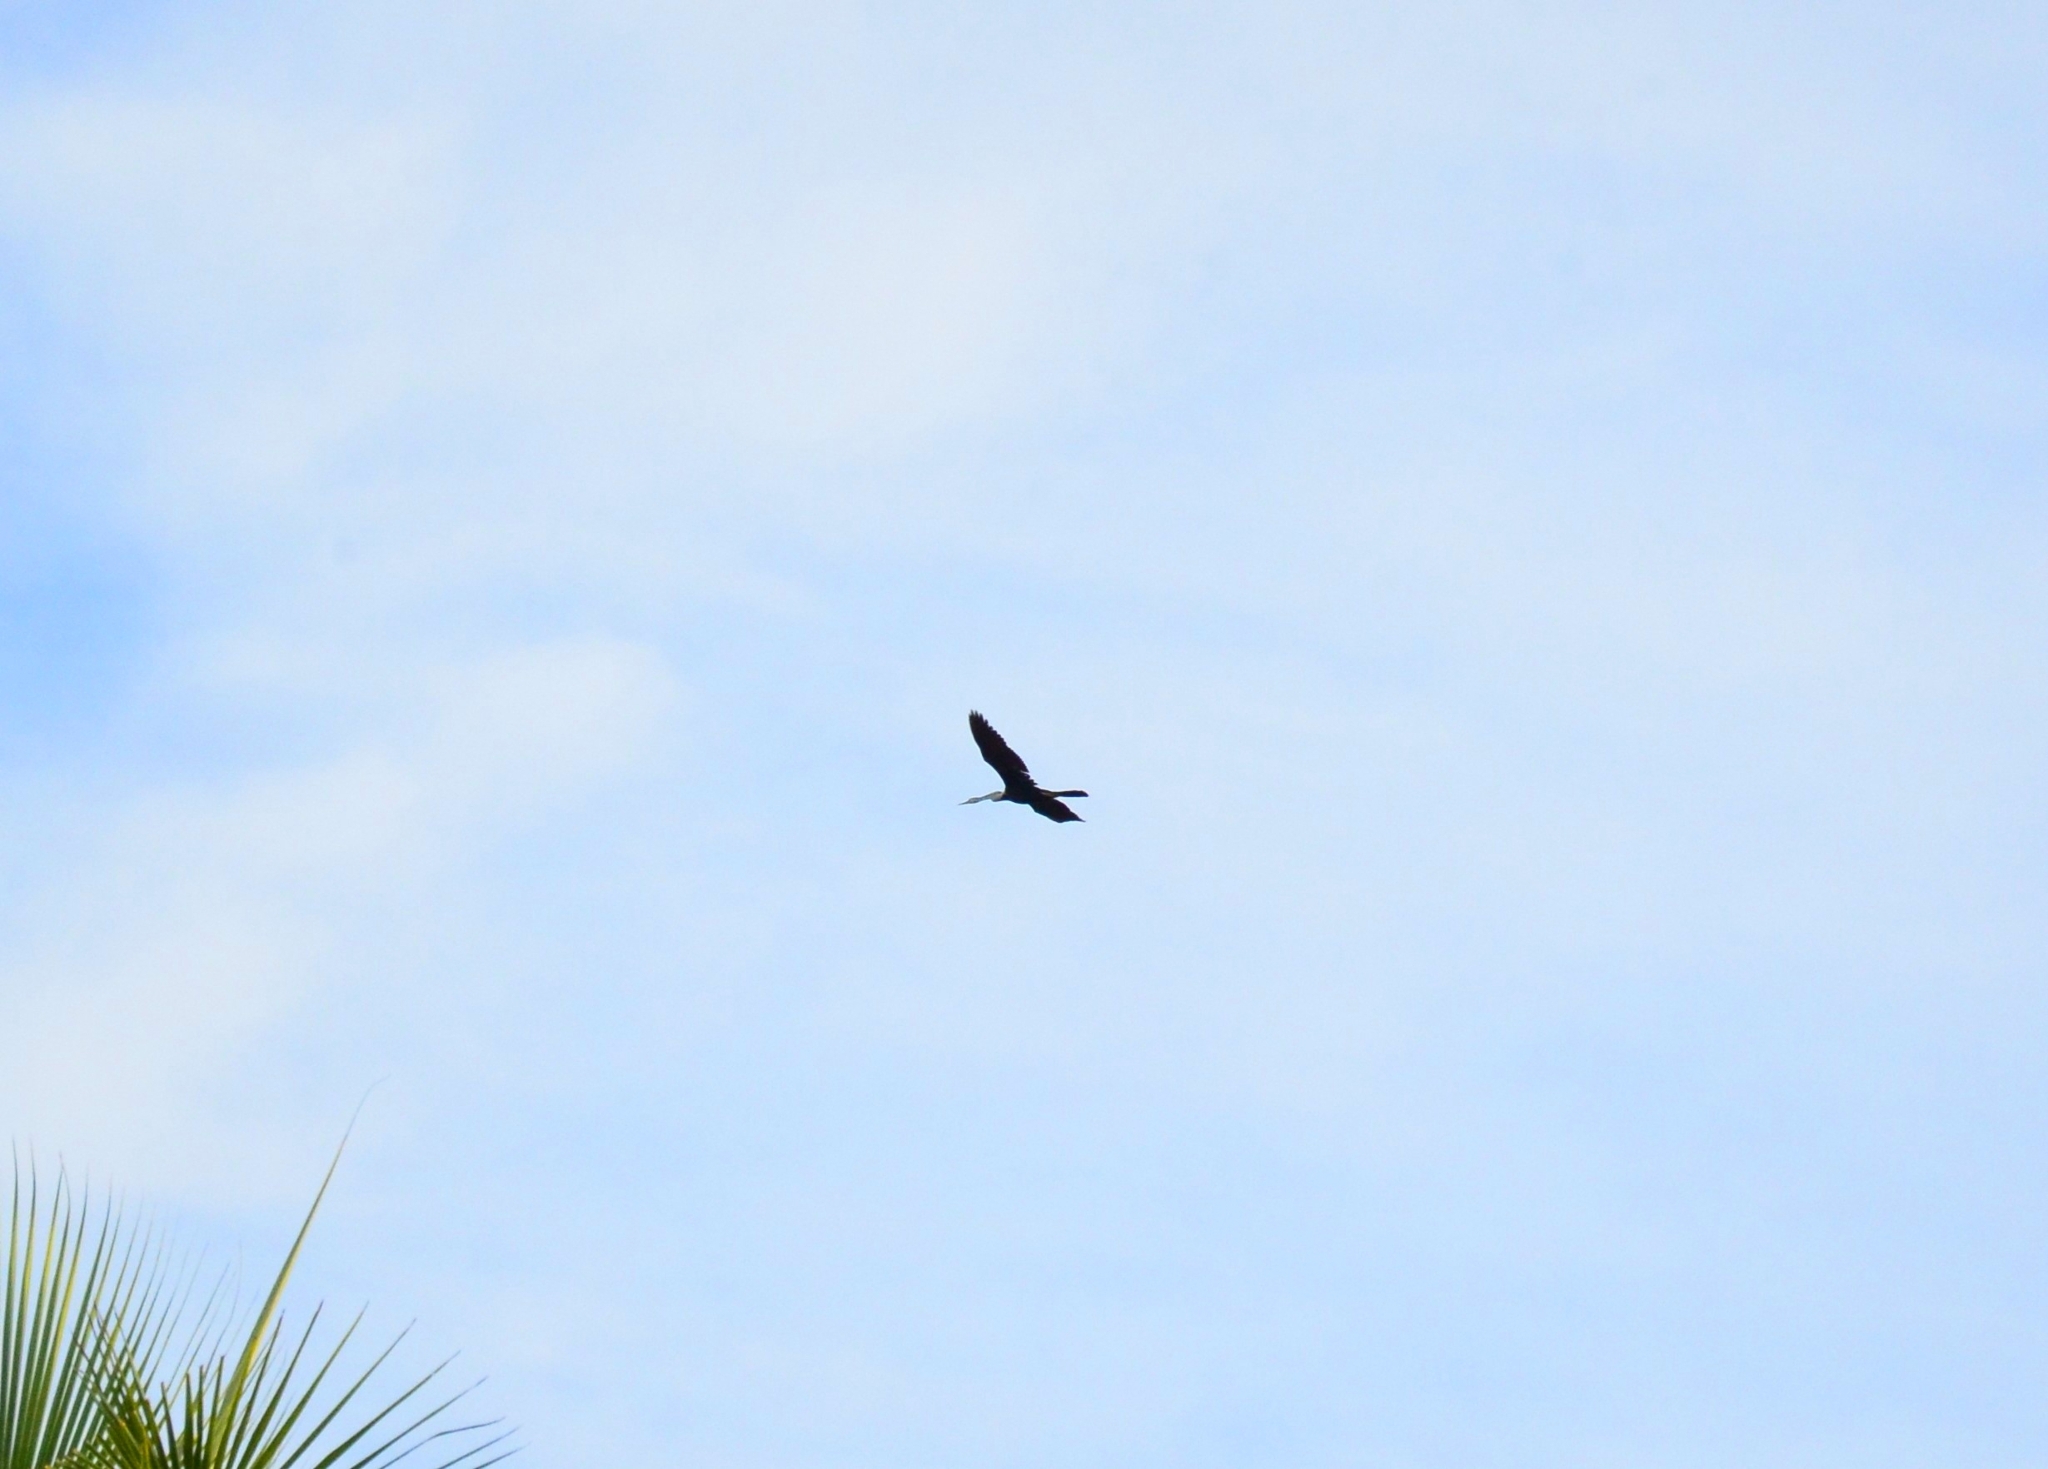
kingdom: Animalia
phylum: Chordata
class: Aves
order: Suliformes
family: Anhingidae
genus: Anhinga
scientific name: Anhinga melanogaster
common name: Oriental darter
